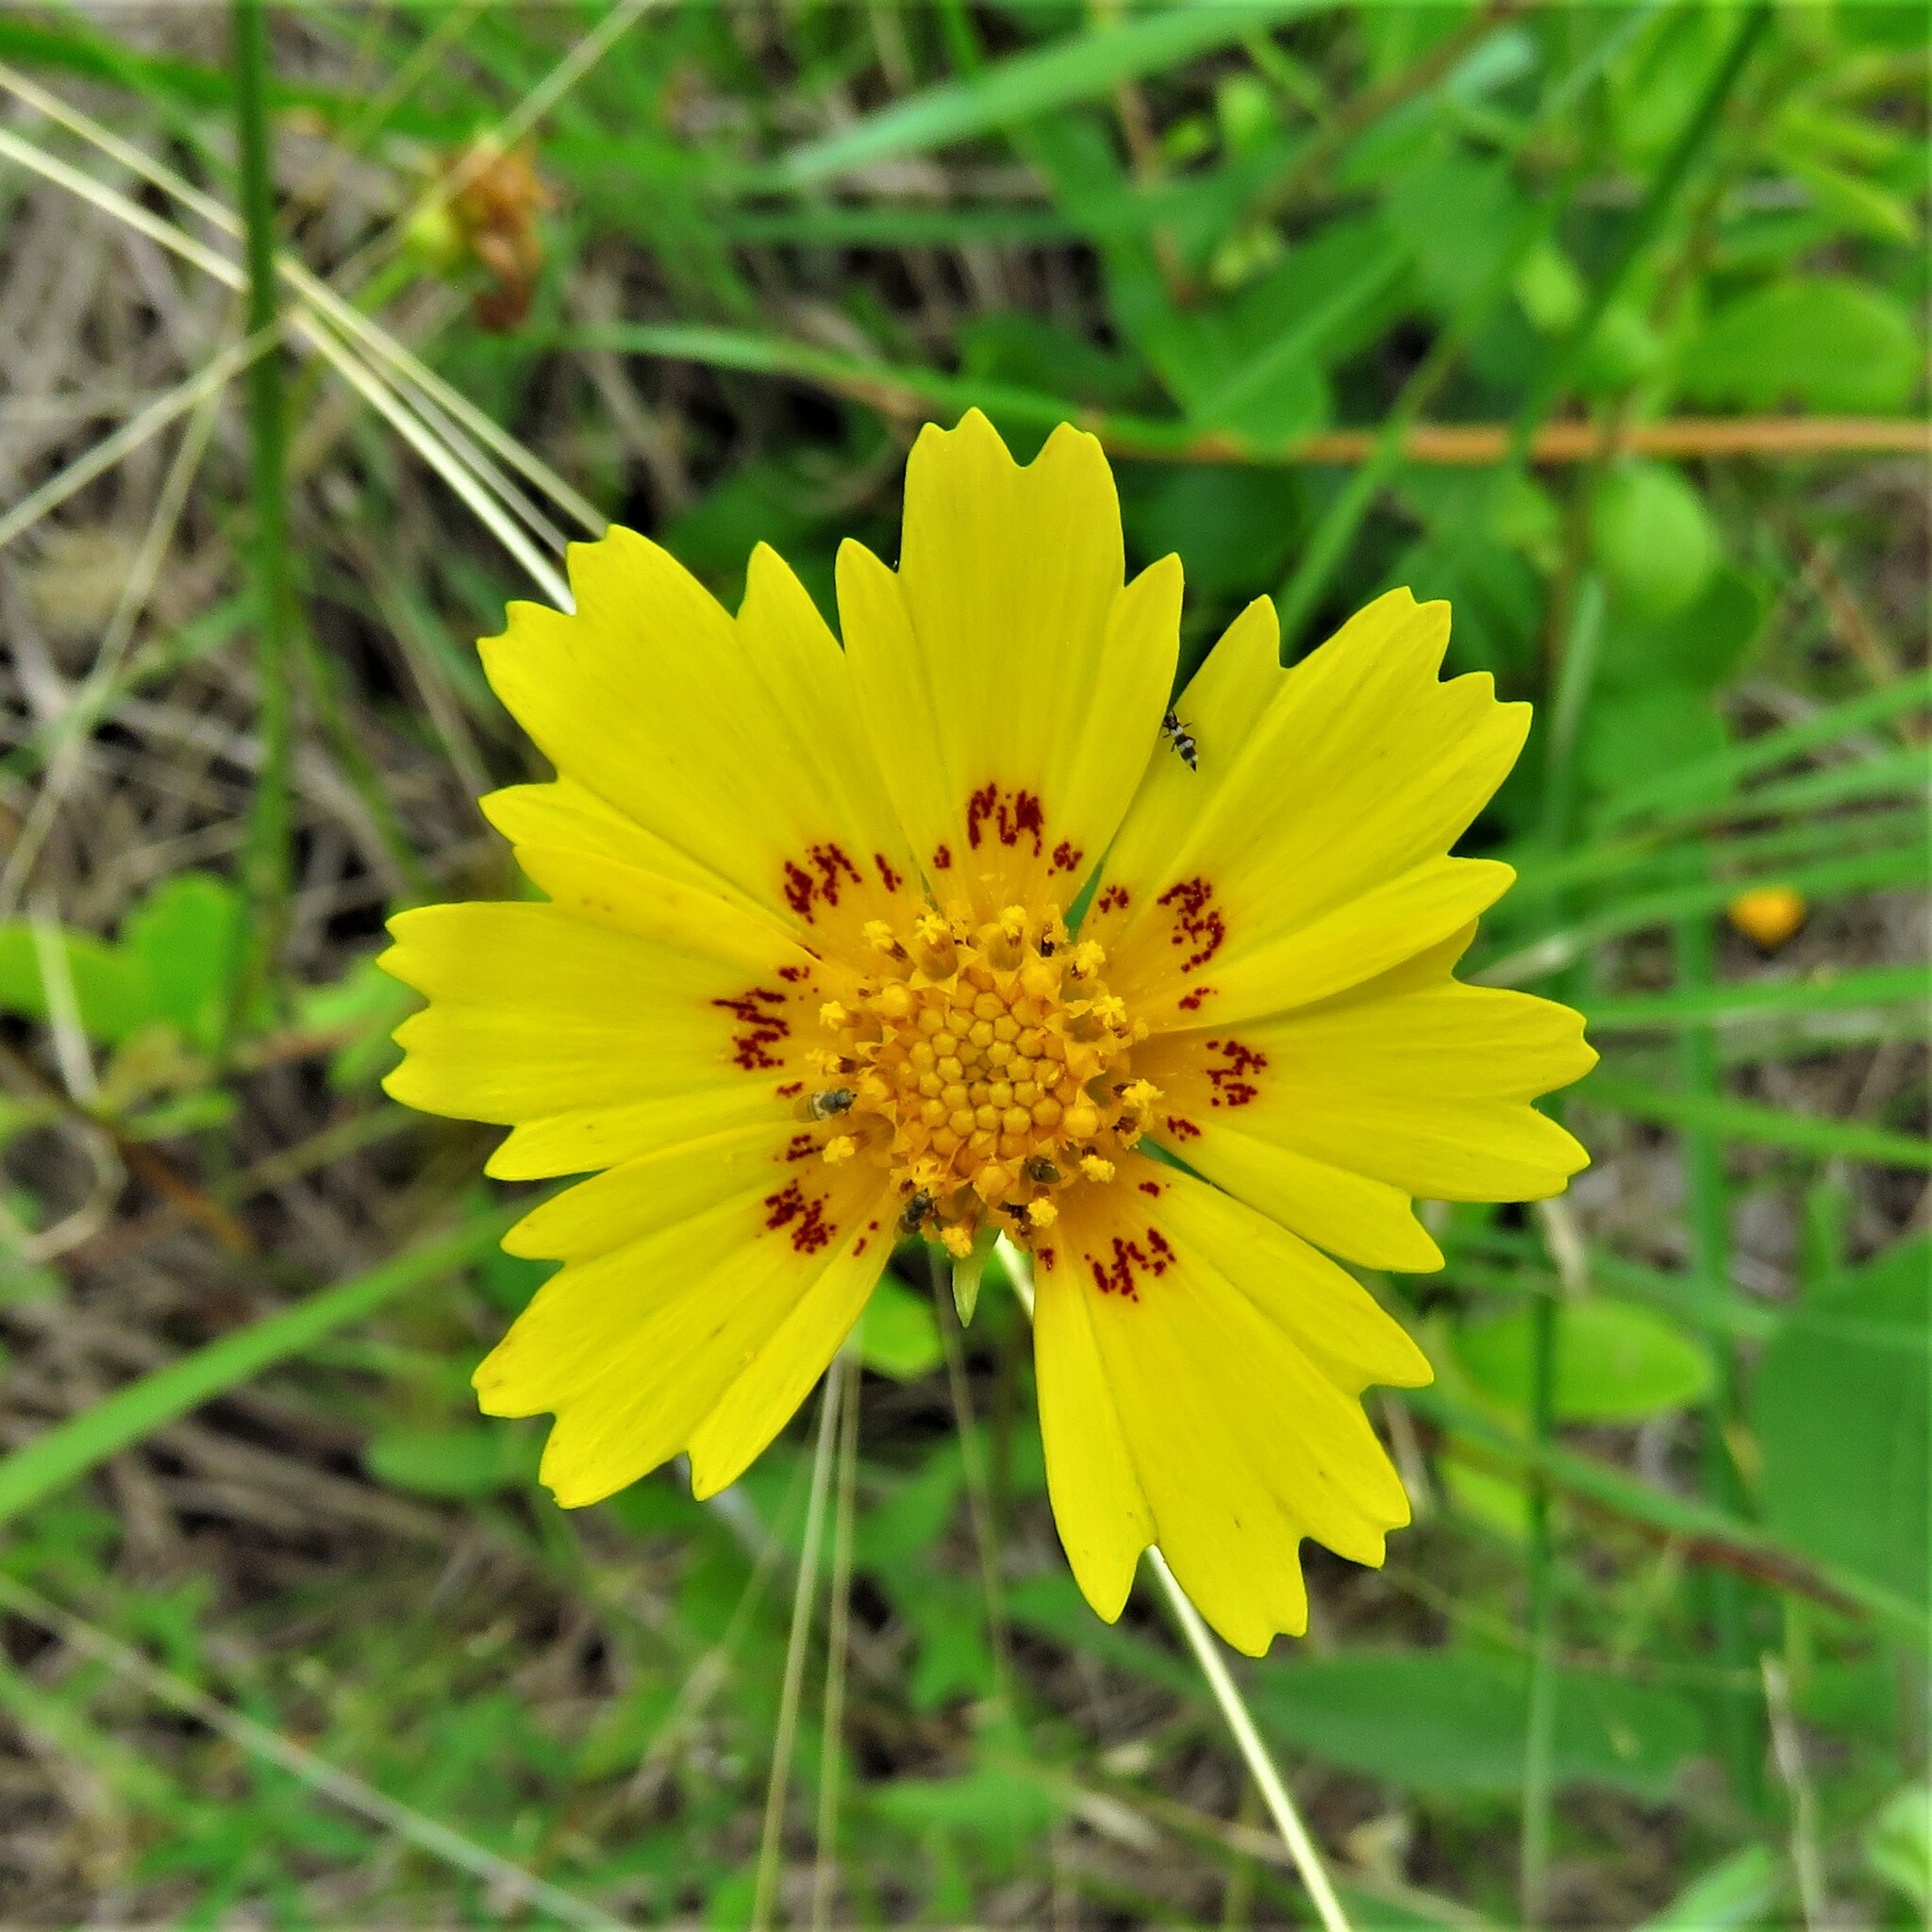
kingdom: Plantae
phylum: Tracheophyta
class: Magnoliopsida
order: Asterales
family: Asteraceae
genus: Coreopsis
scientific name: Coreopsis nuecensis
